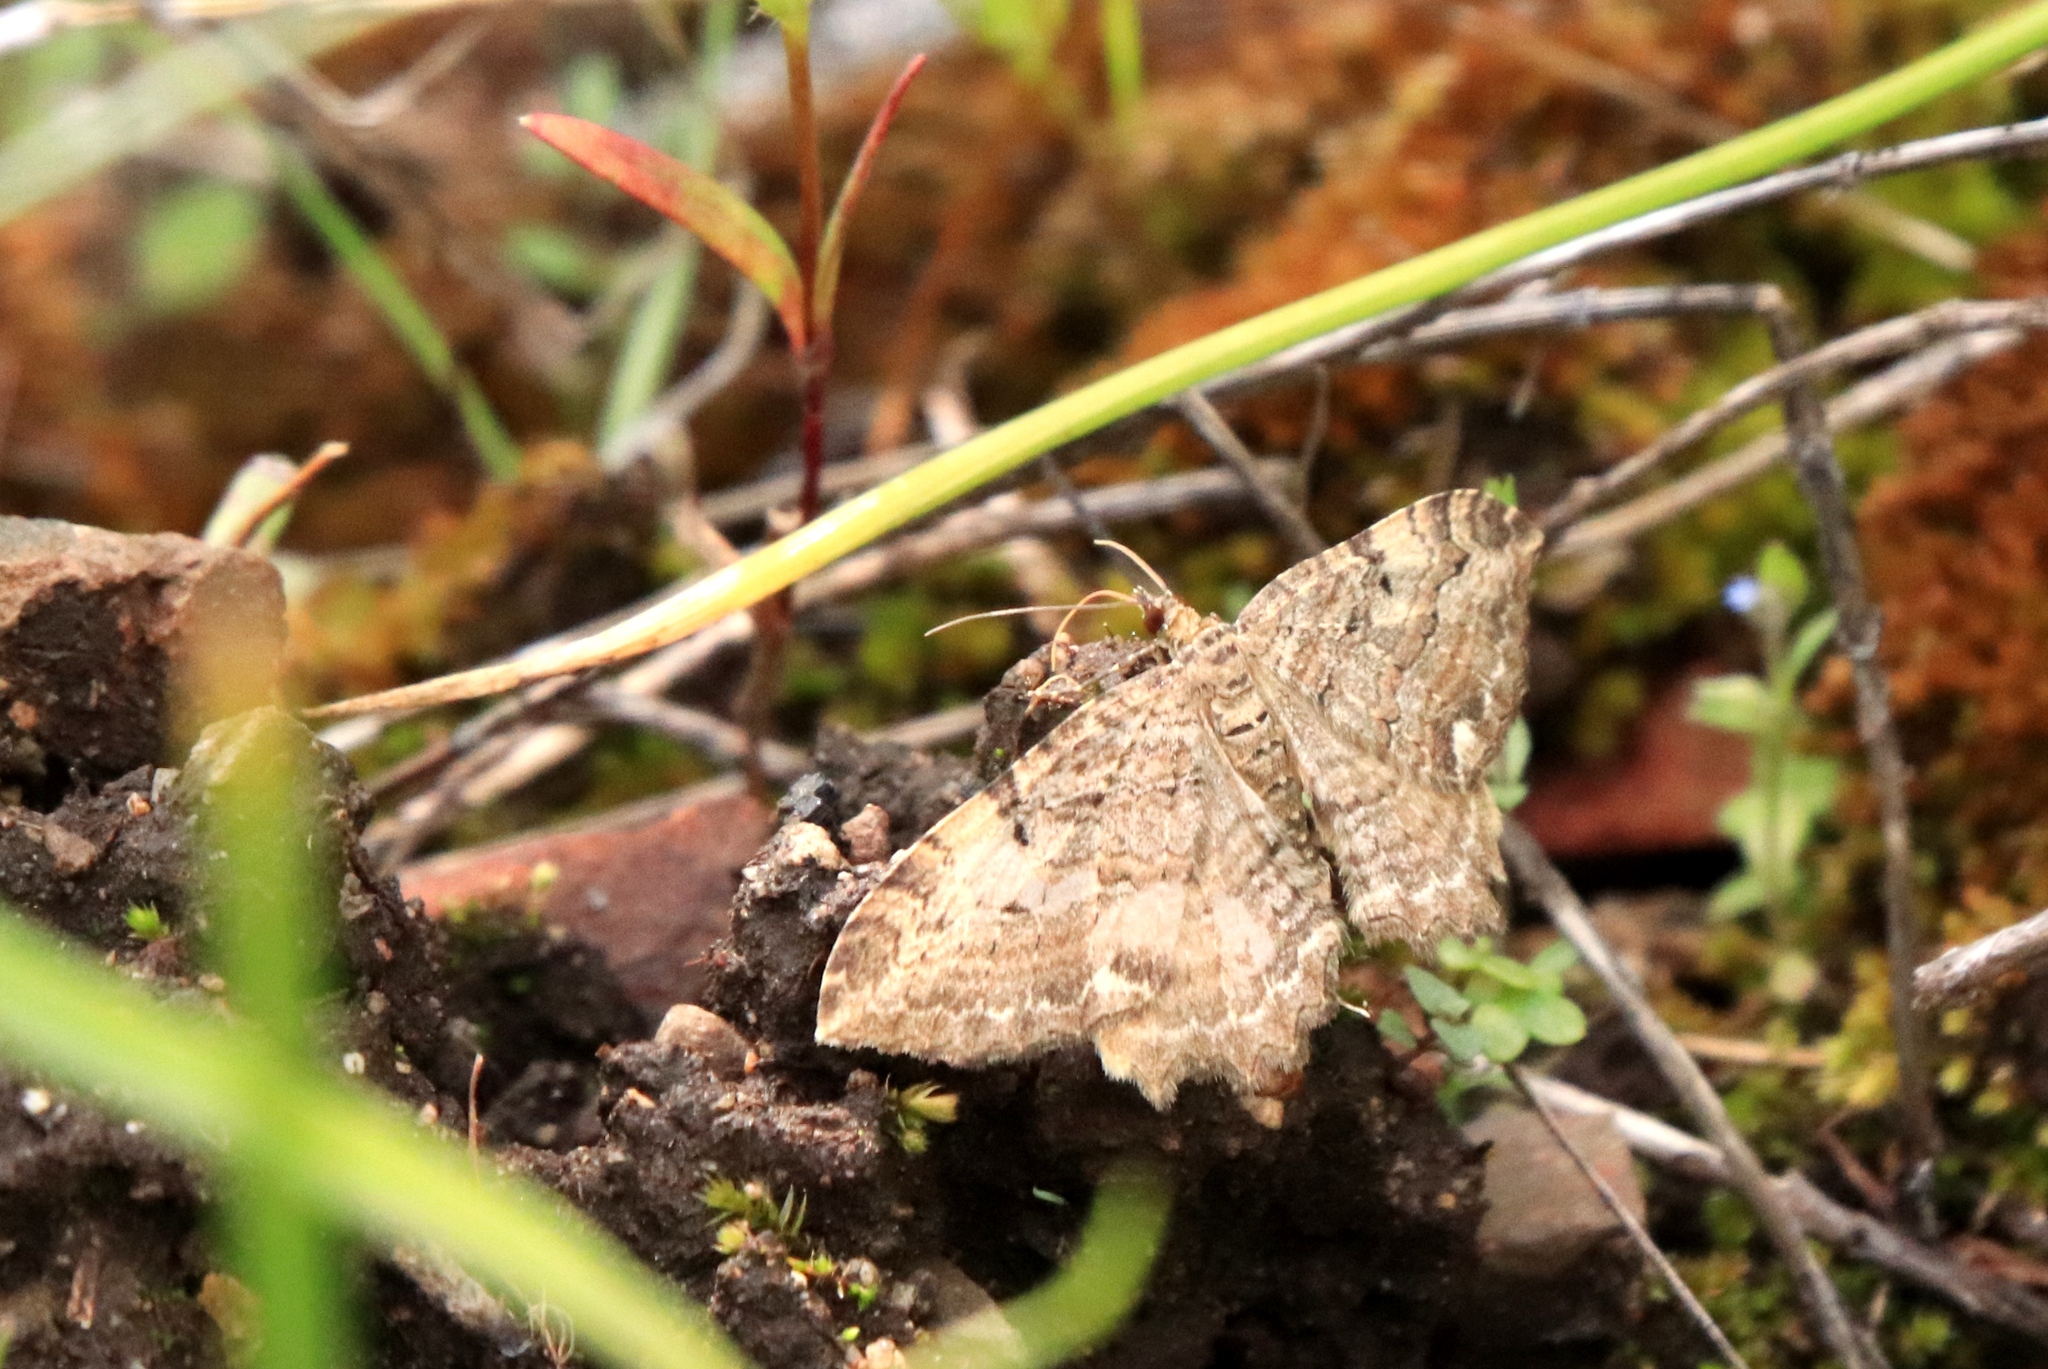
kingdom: Animalia
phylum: Arthropoda
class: Insecta
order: Lepidoptera
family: Geometridae
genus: Rheumaptera
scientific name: Rheumaptera
